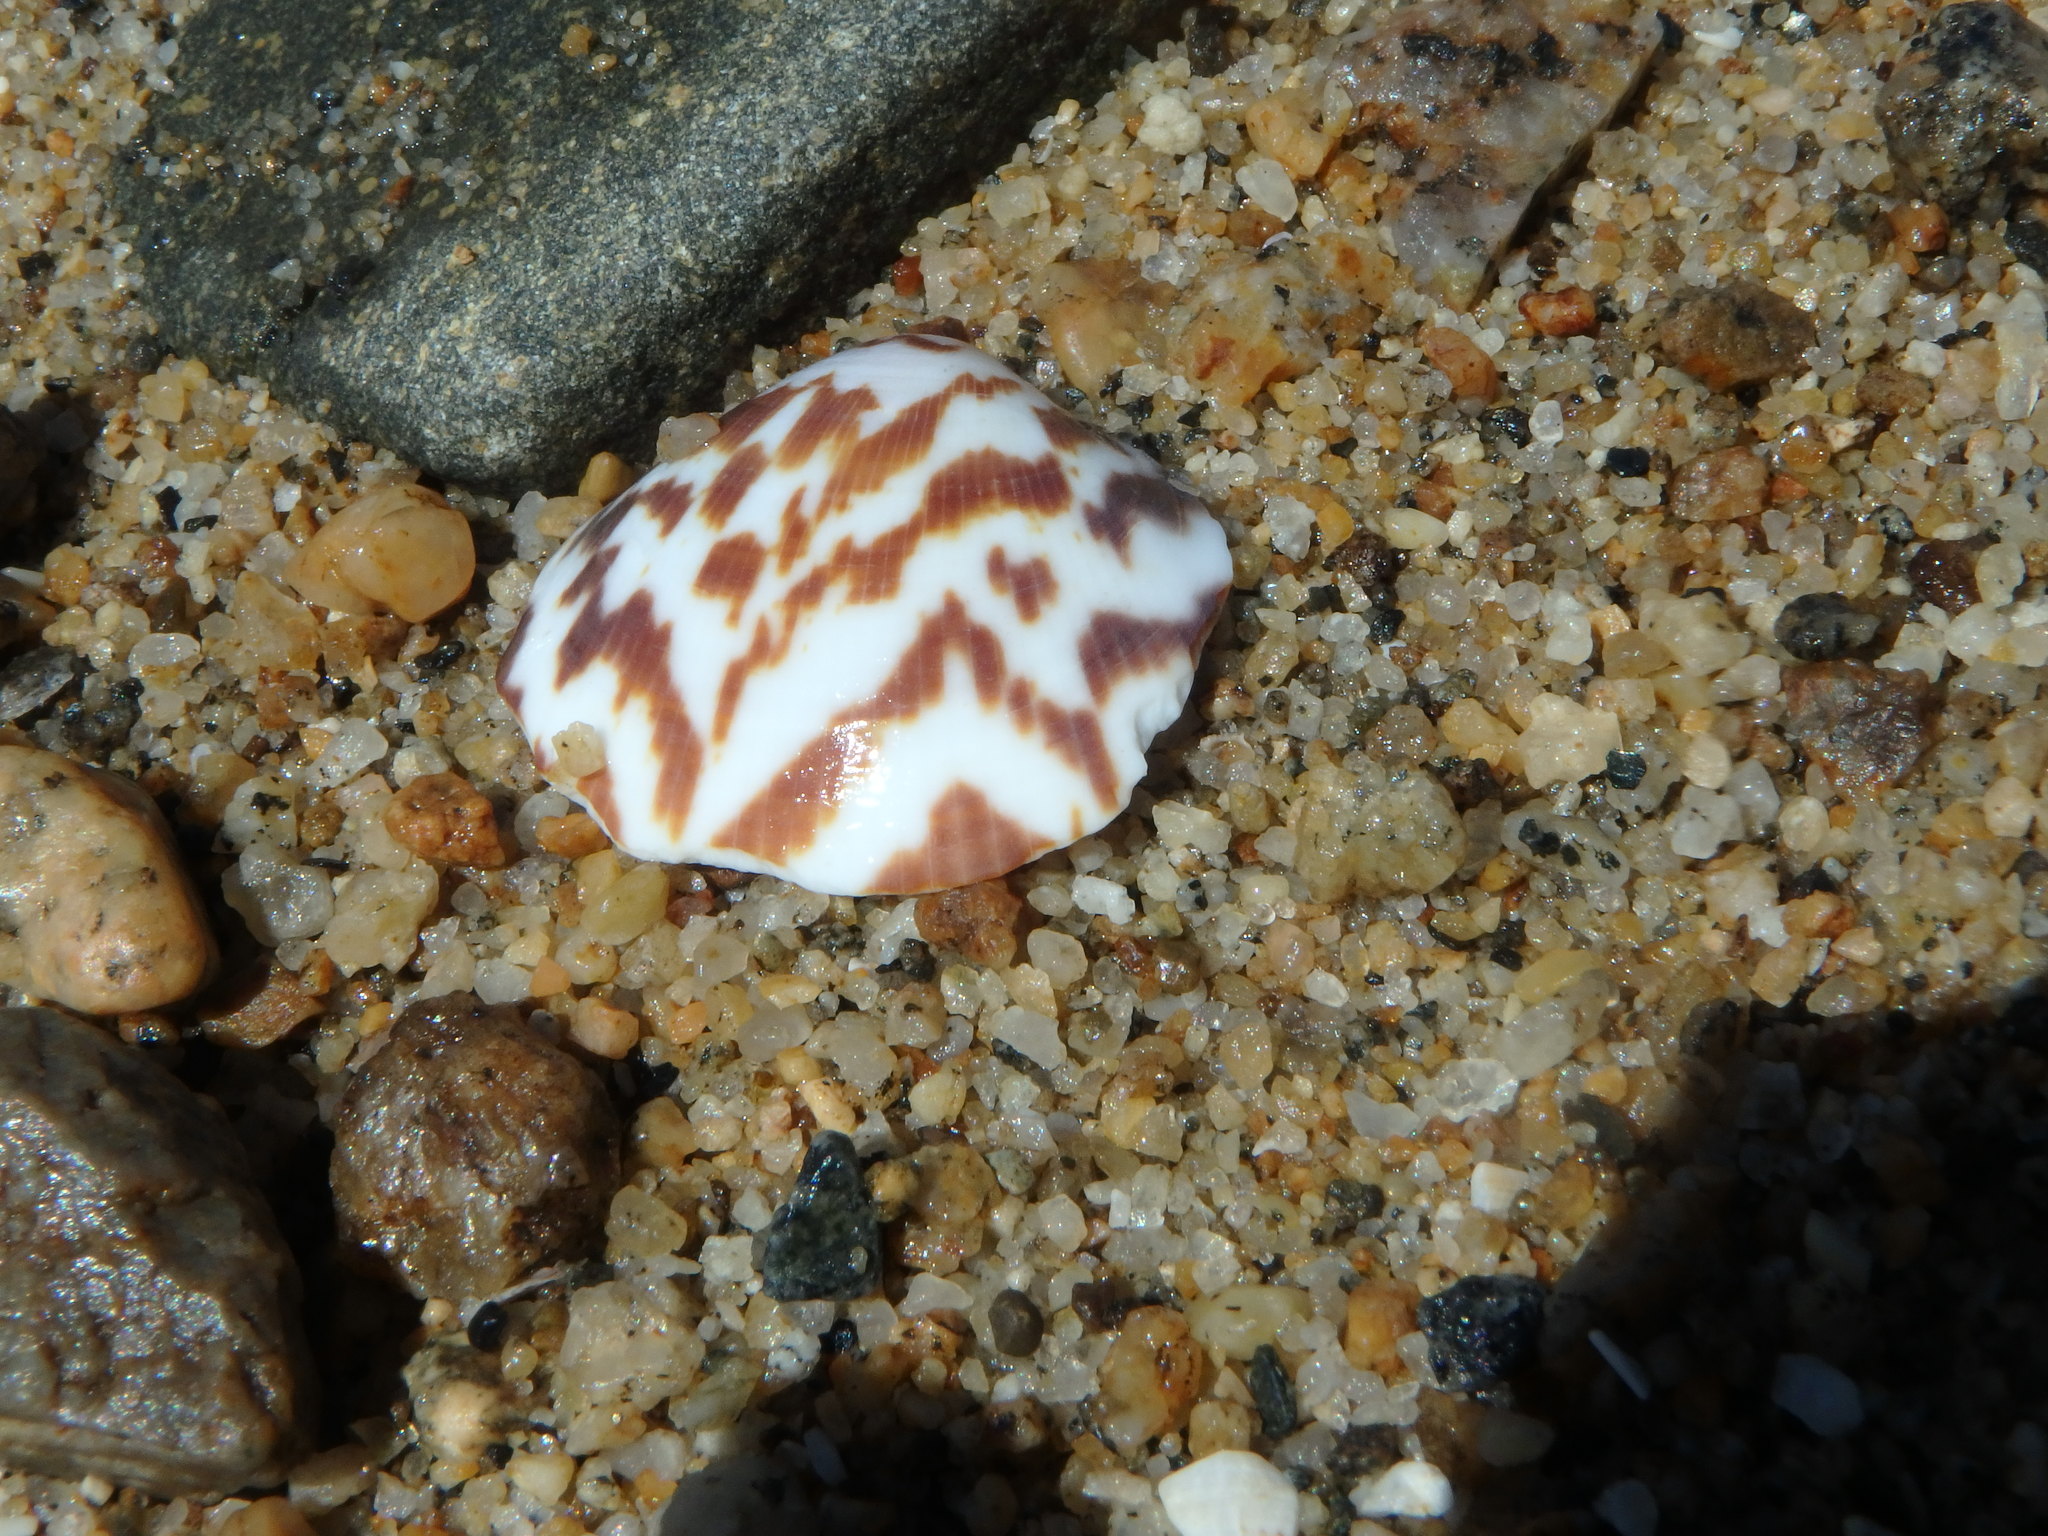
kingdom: Animalia
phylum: Mollusca
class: Bivalvia
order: Arcida
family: Glycymerididae
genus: Glycymeris
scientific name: Glycymeris aspersa
